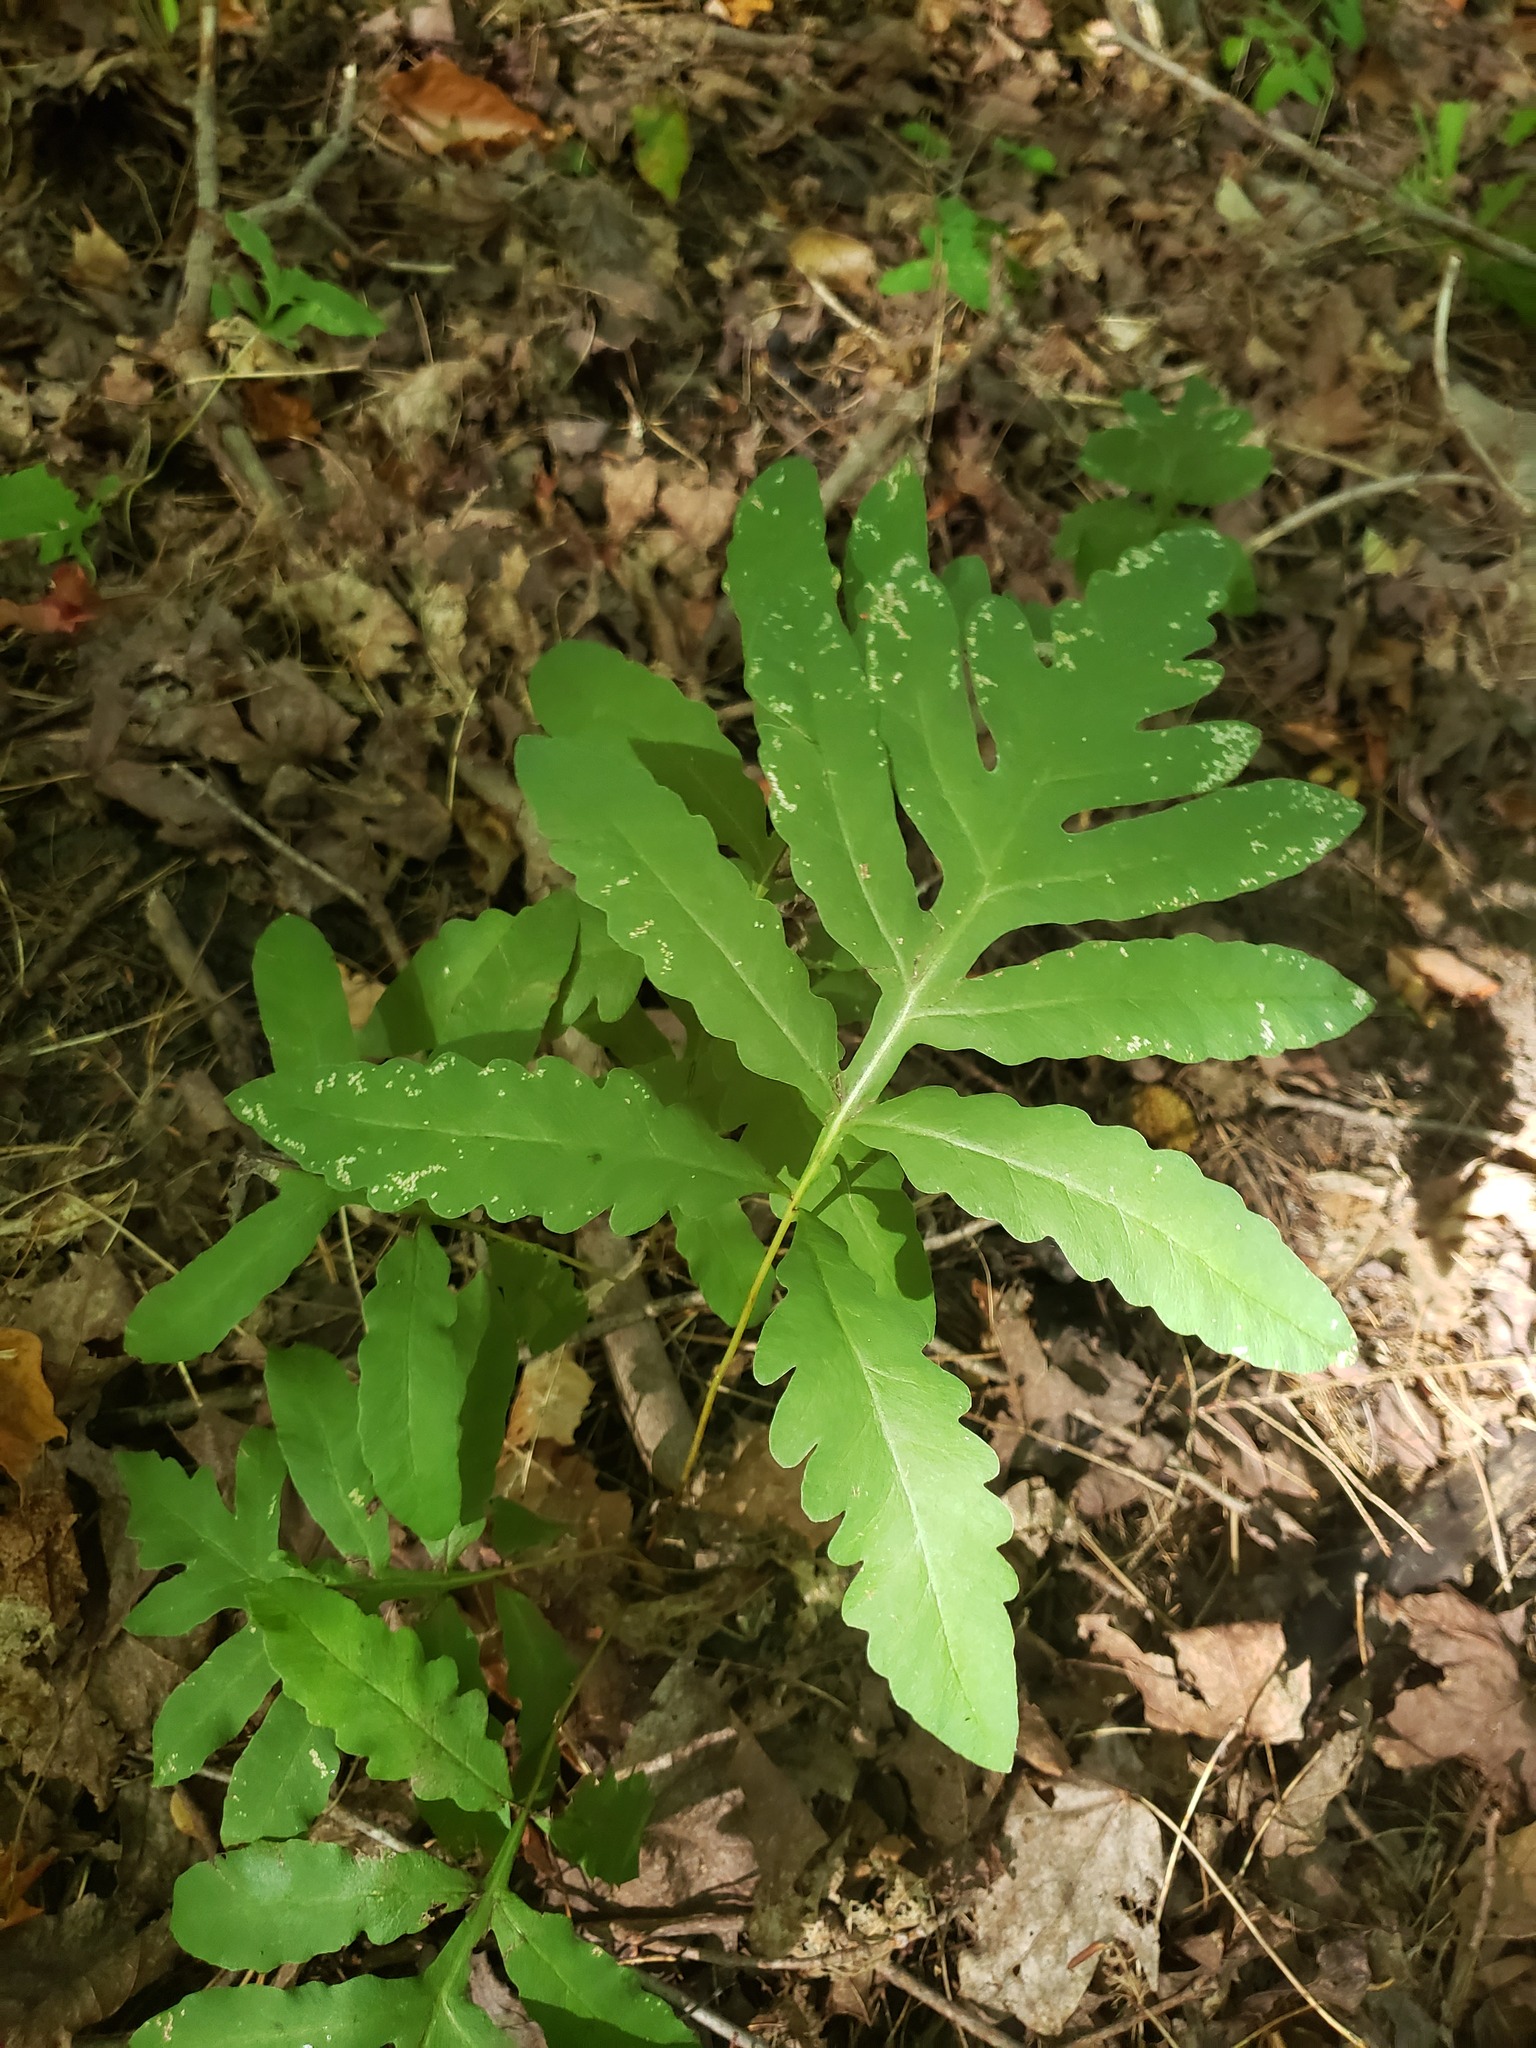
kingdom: Plantae
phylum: Tracheophyta
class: Polypodiopsida
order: Polypodiales
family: Onocleaceae
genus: Onoclea
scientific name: Onoclea sensibilis
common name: Sensitive fern
